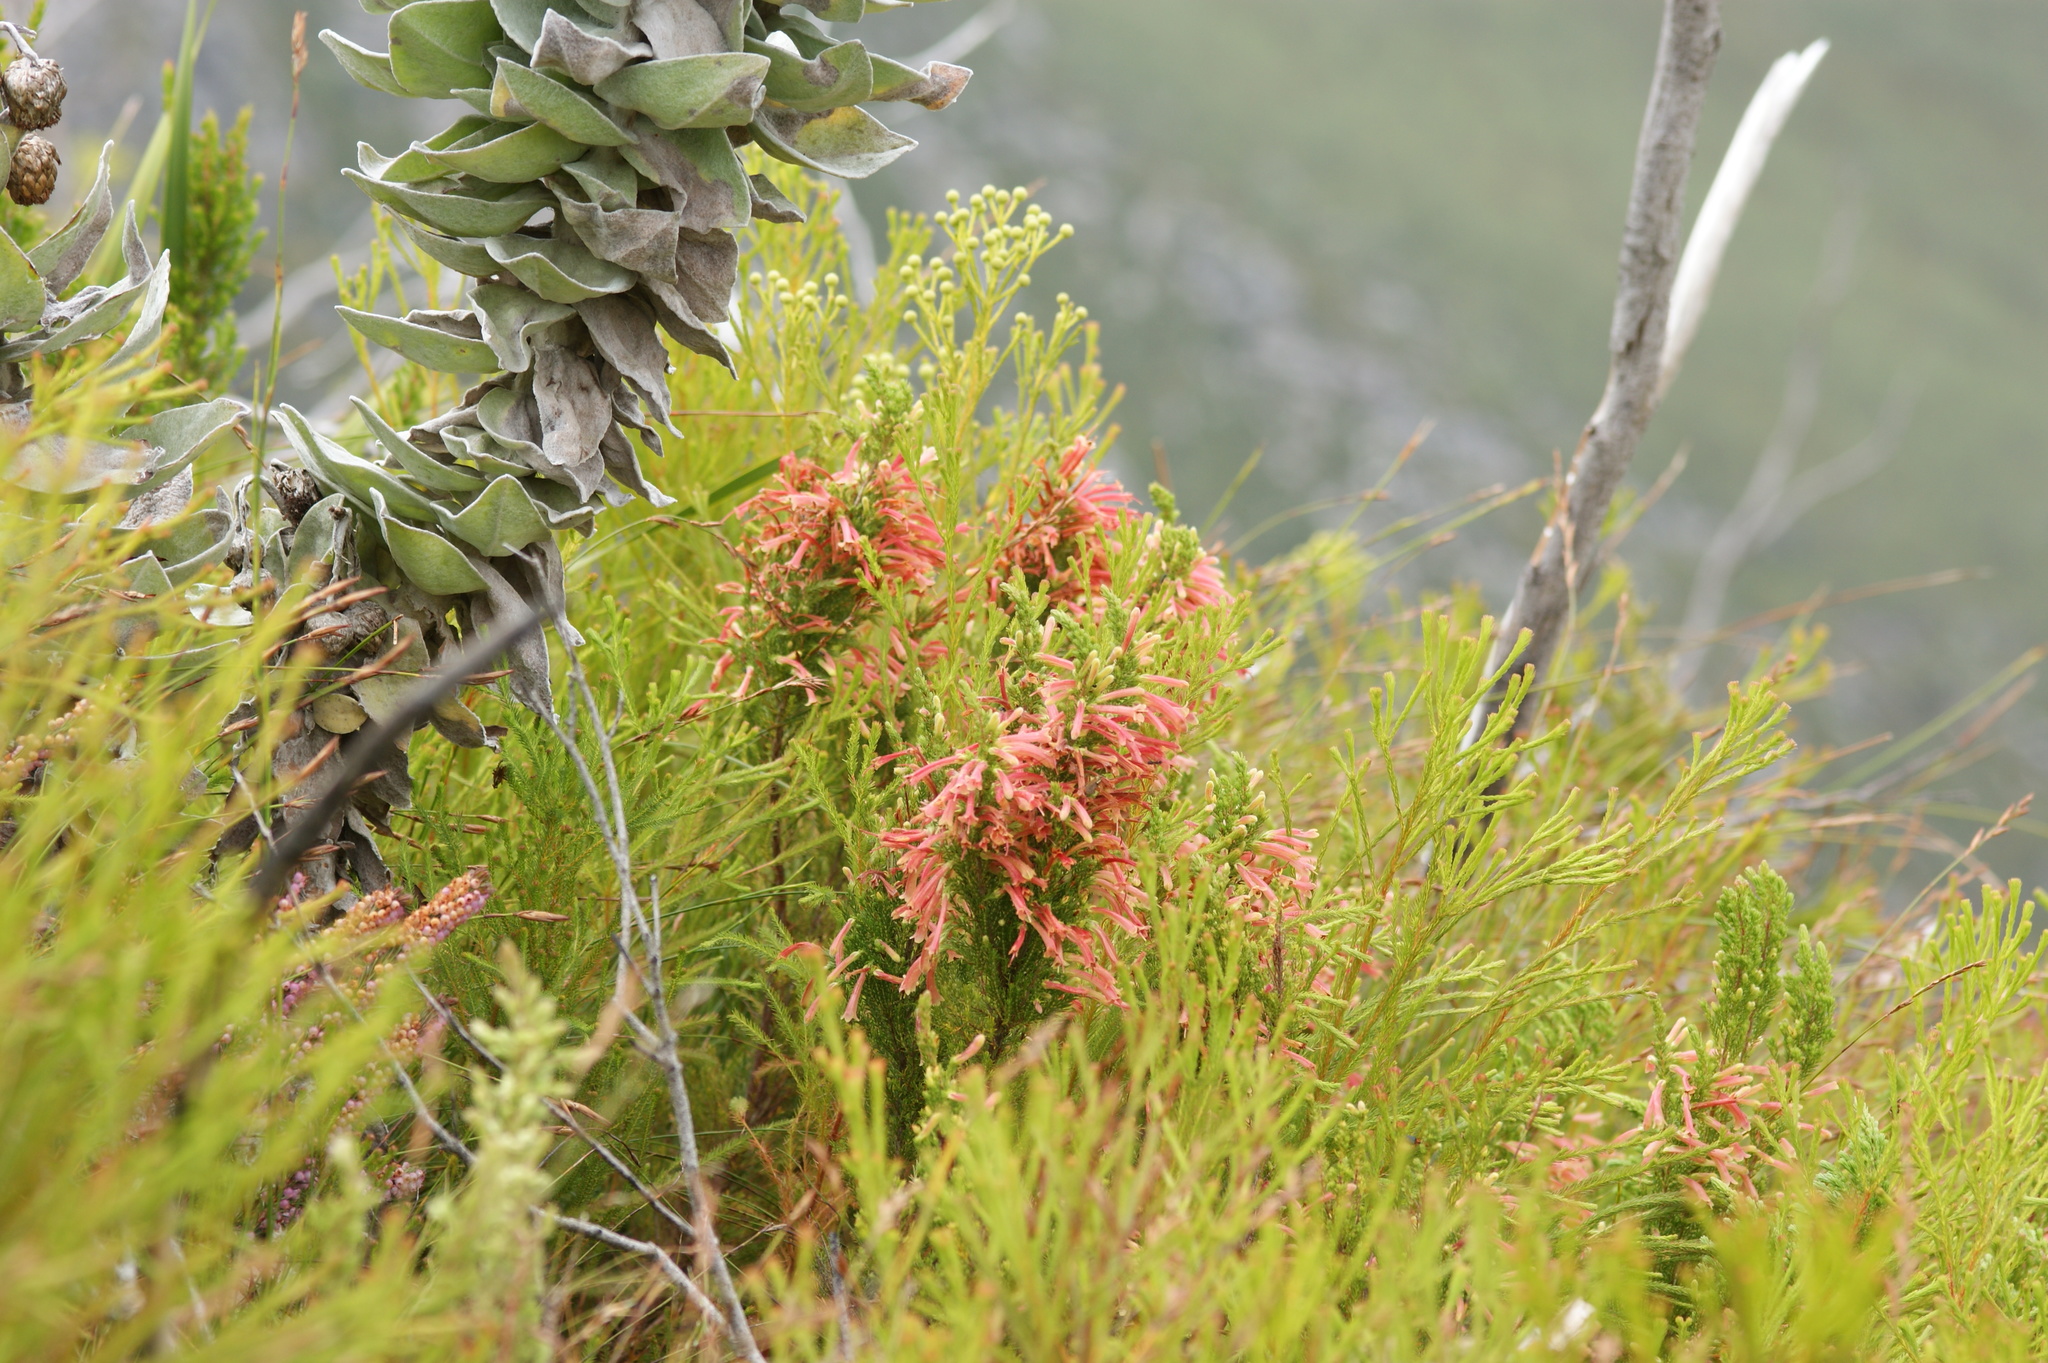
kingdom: Plantae
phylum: Tracheophyta
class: Magnoliopsida
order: Ericales
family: Ericaceae
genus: Erica
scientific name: Erica curviflora
